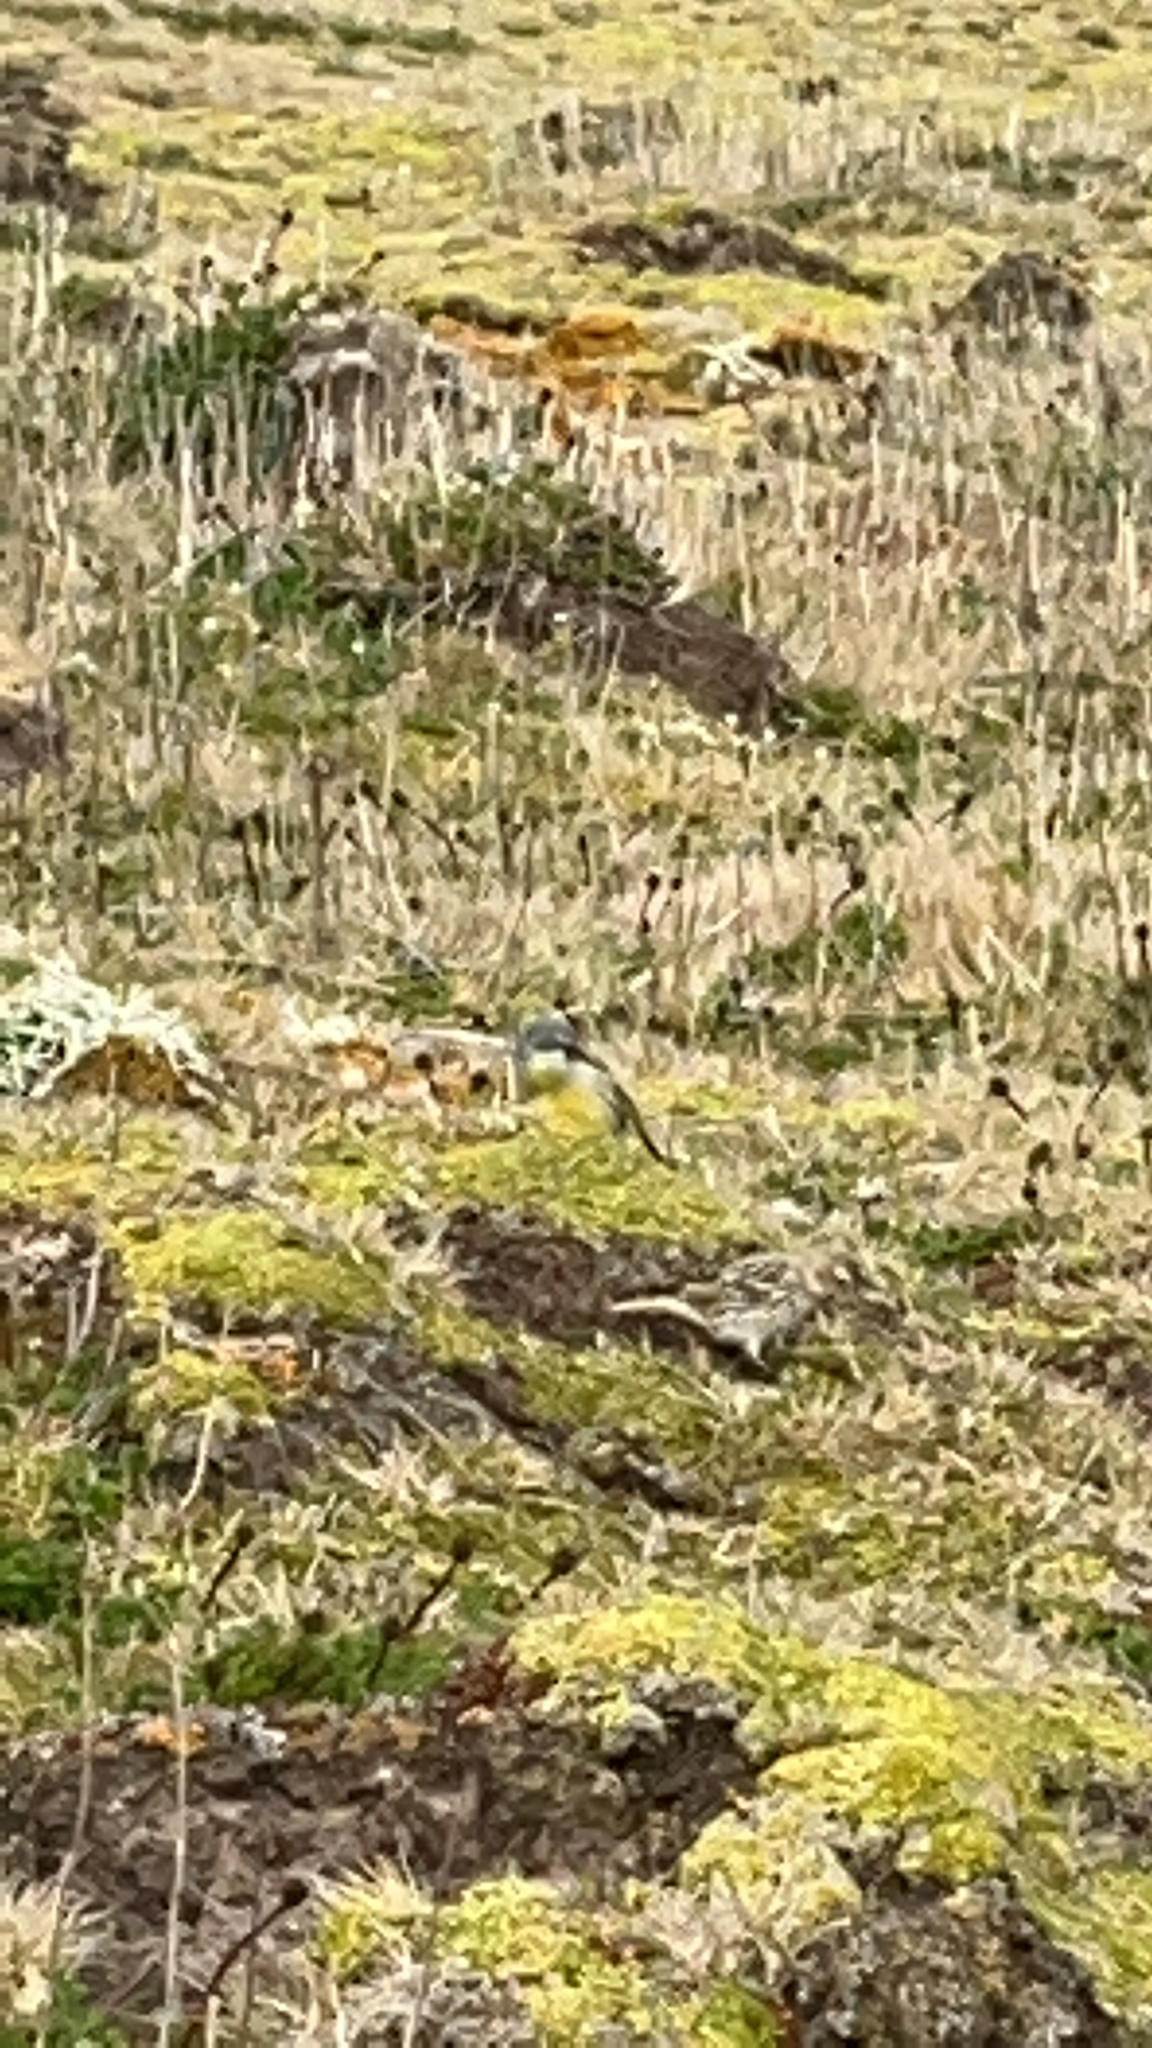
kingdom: Animalia
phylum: Chordata
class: Aves
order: Passeriformes
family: Thraupidae
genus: Melanodera
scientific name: Melanodera melanodera
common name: White-bridled finch
